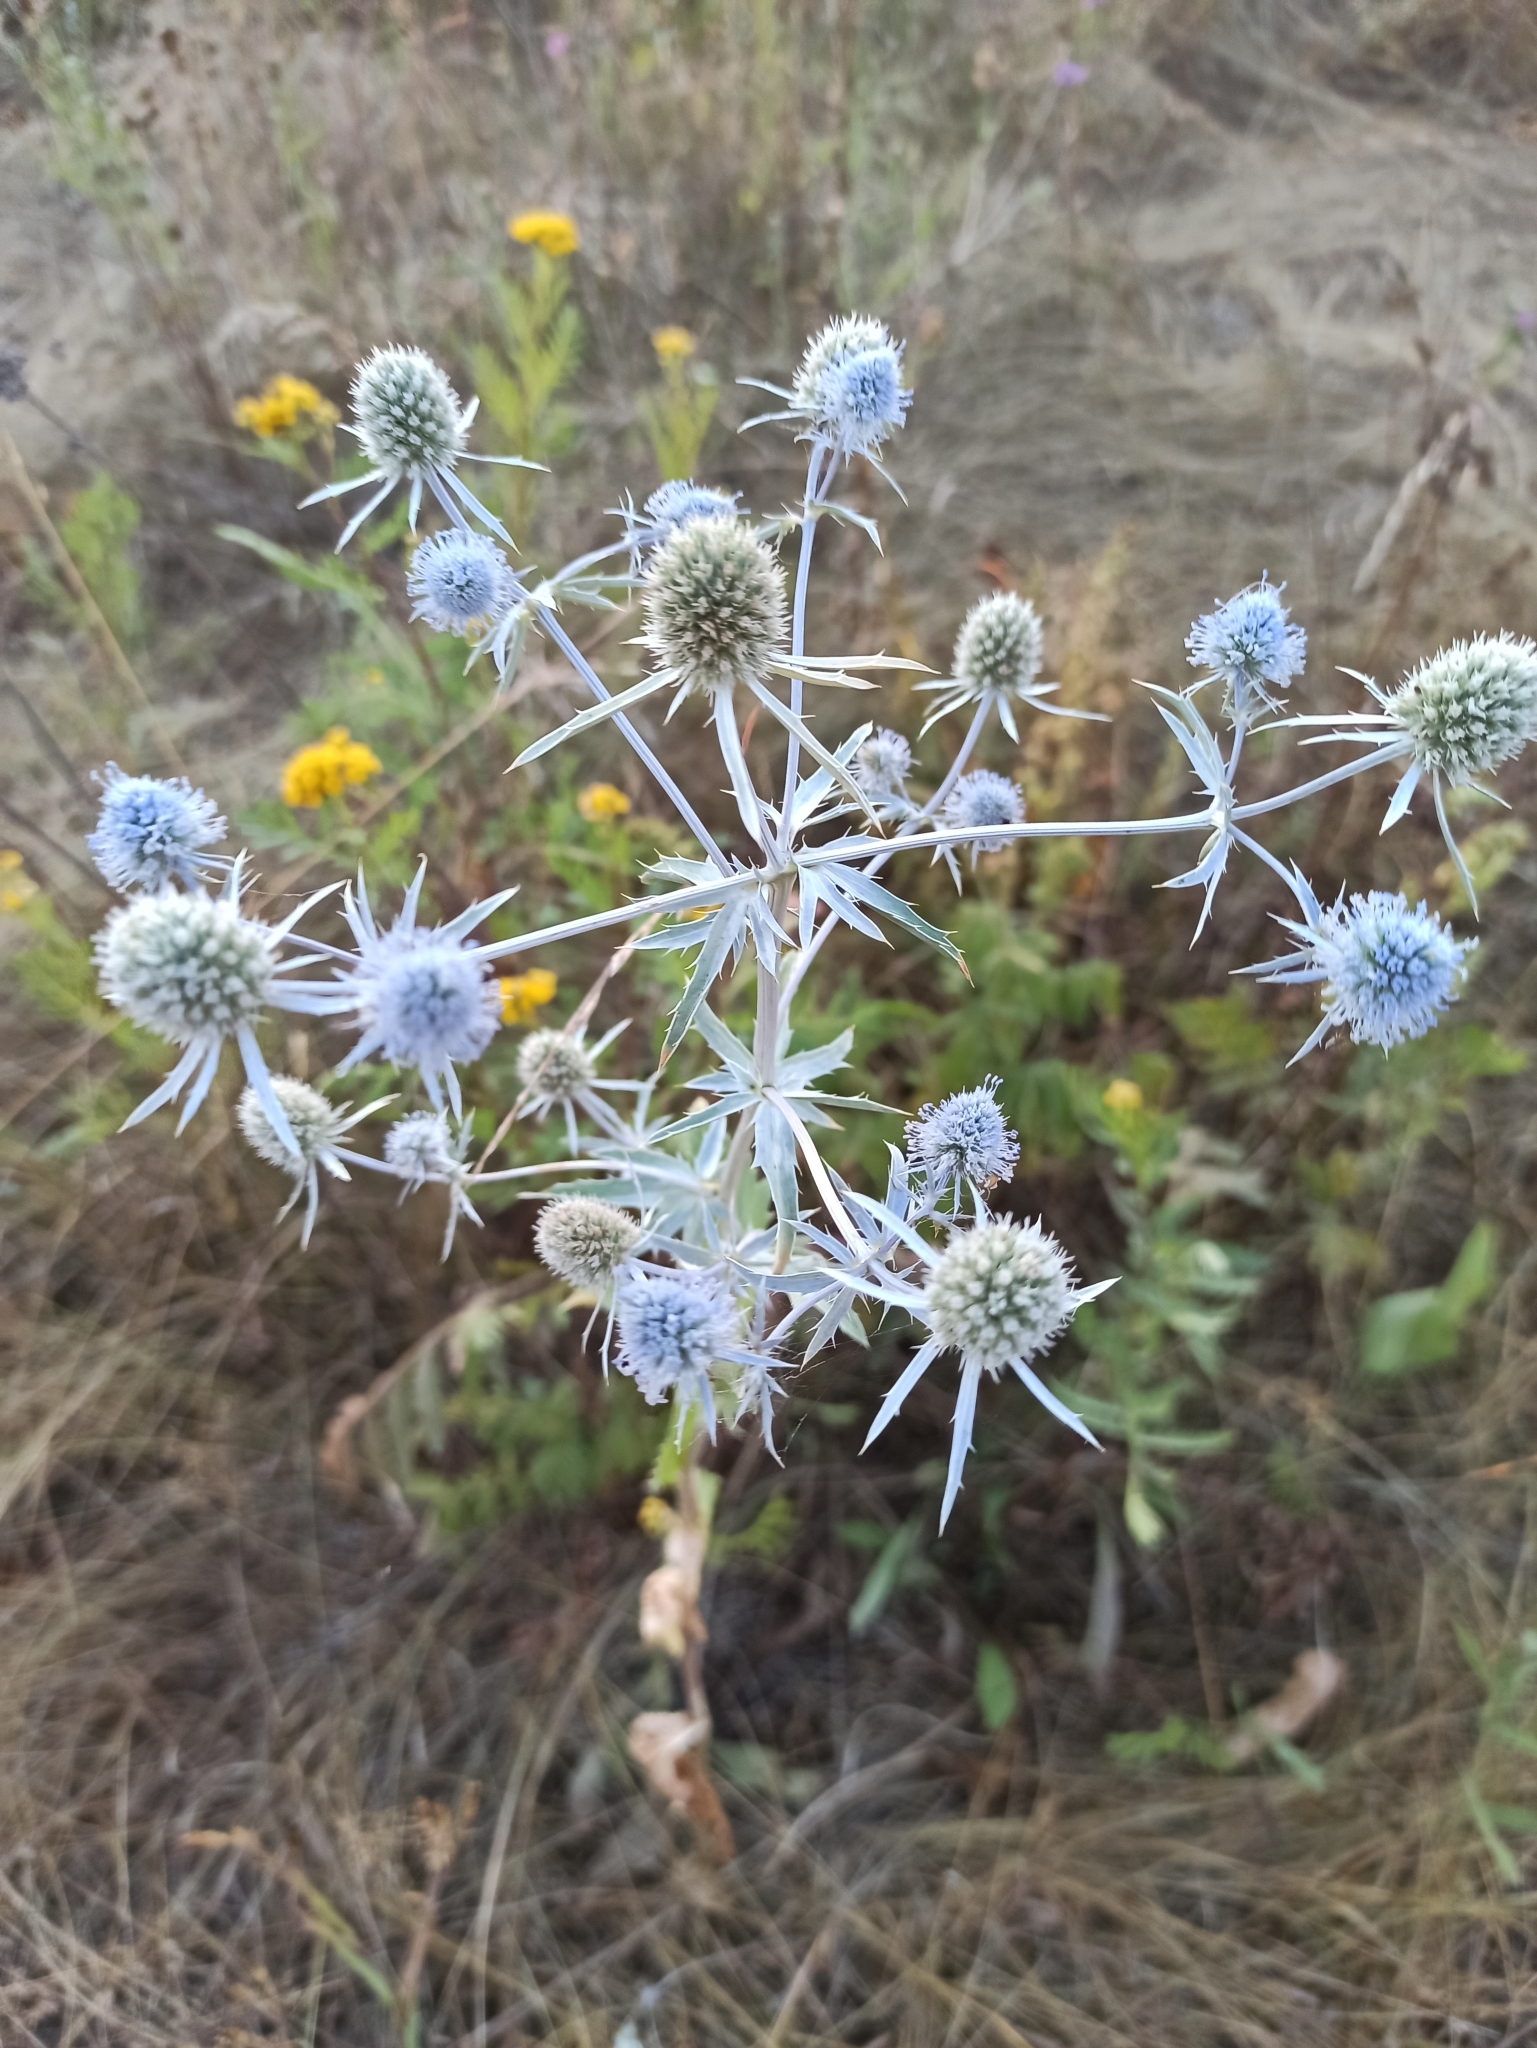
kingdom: Plantae
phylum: Tracheophyta
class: Magnoliopsida
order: Apiales
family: Apiaceae
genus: Eryngium
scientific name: Eryngium planum
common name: Blue eryngo
